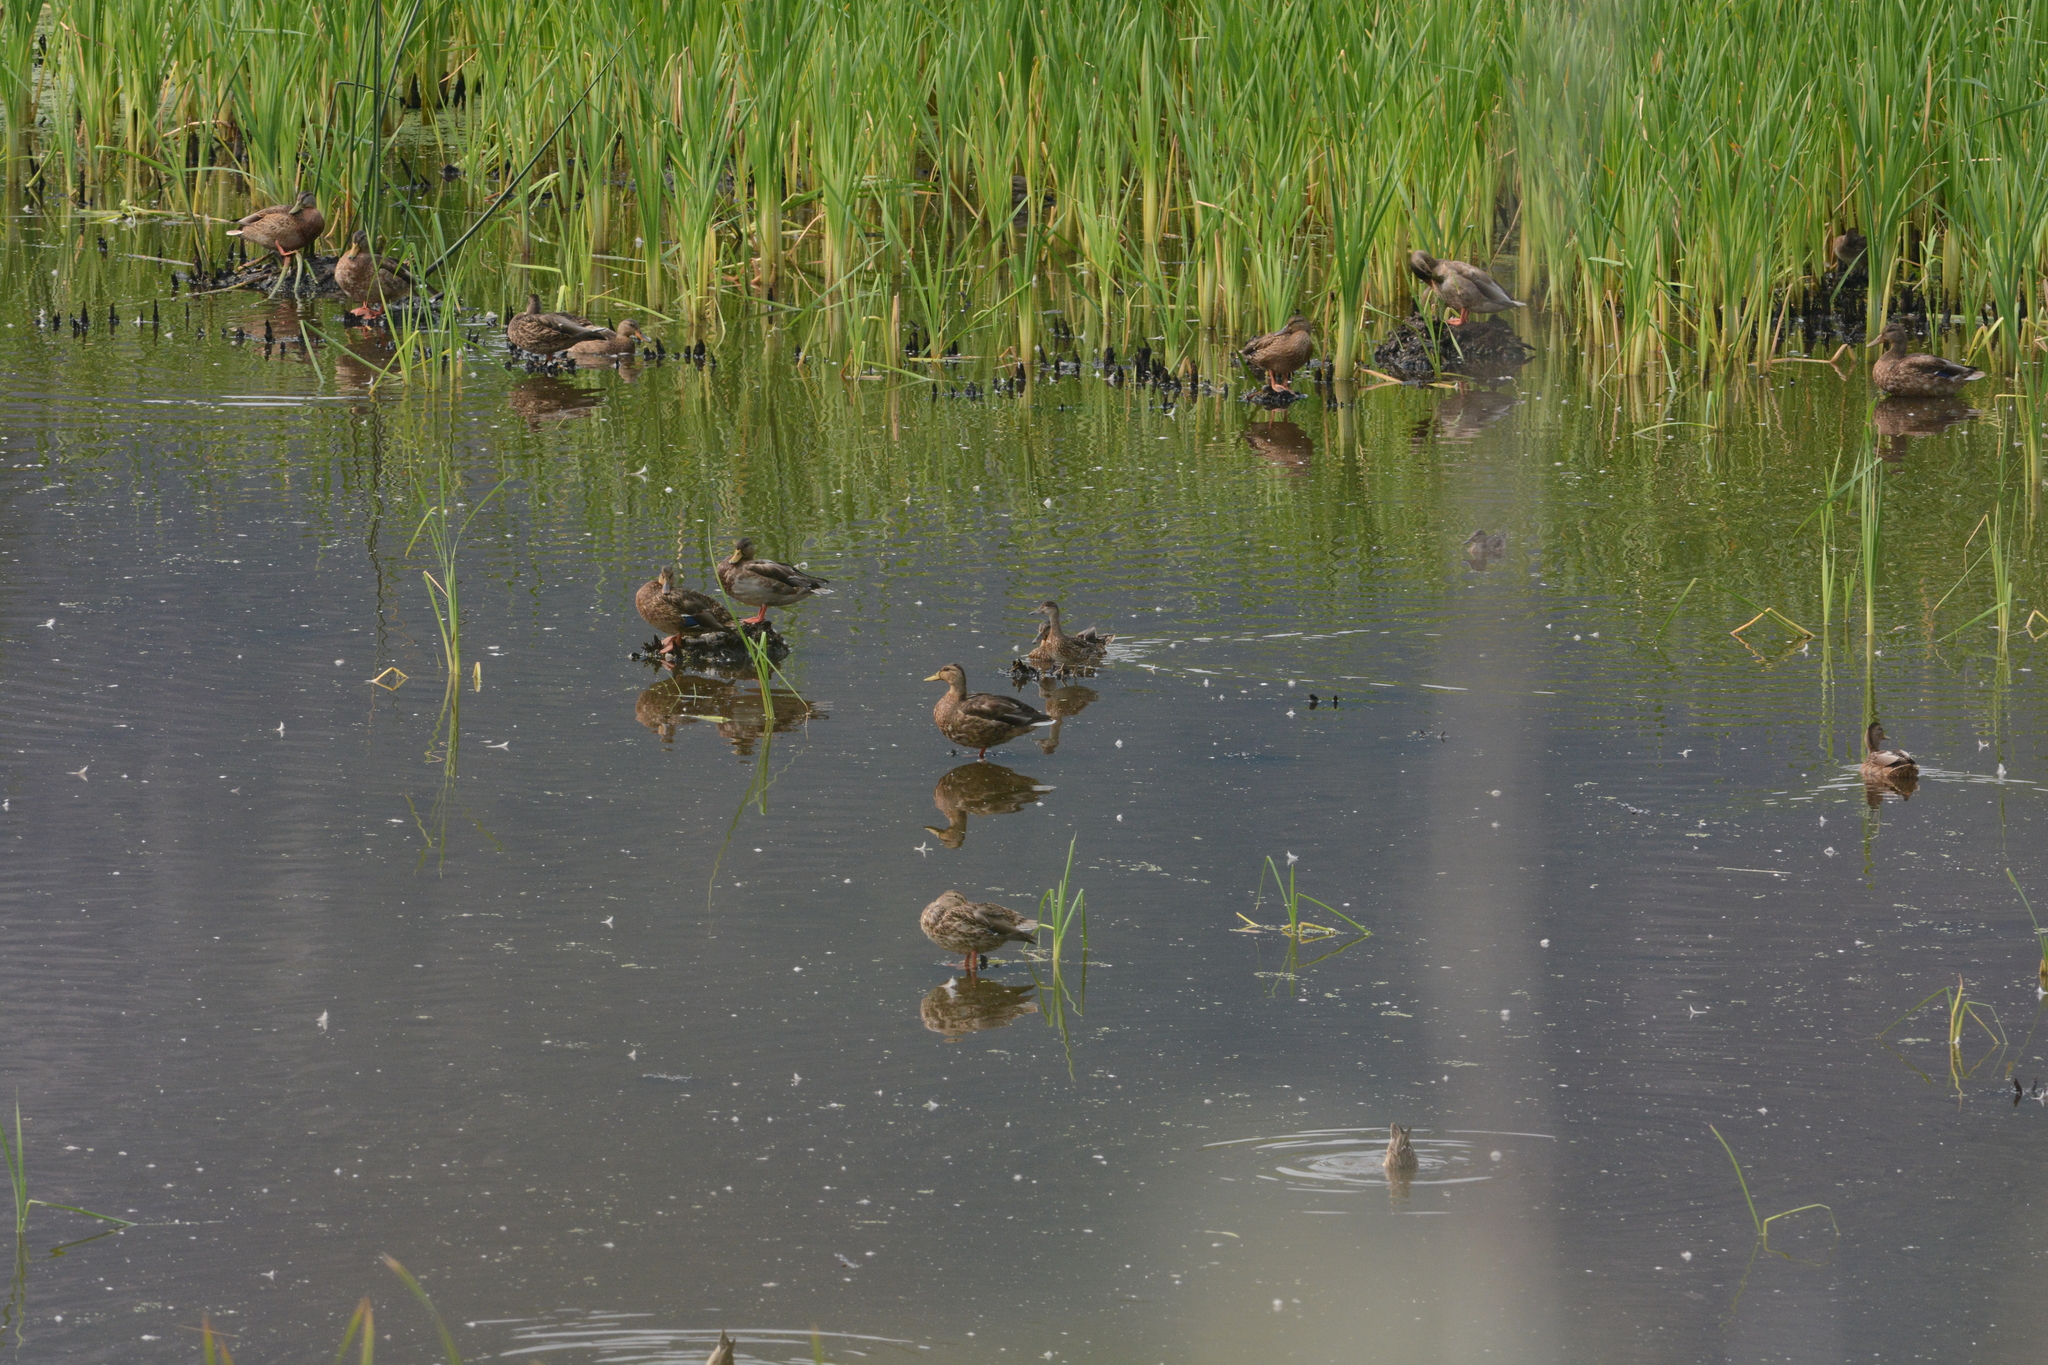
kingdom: Animalia
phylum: Chordata
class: Aves
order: Anseriformes
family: Anatidae
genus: Anas
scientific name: Anas platyrhynchos
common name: Mallard
